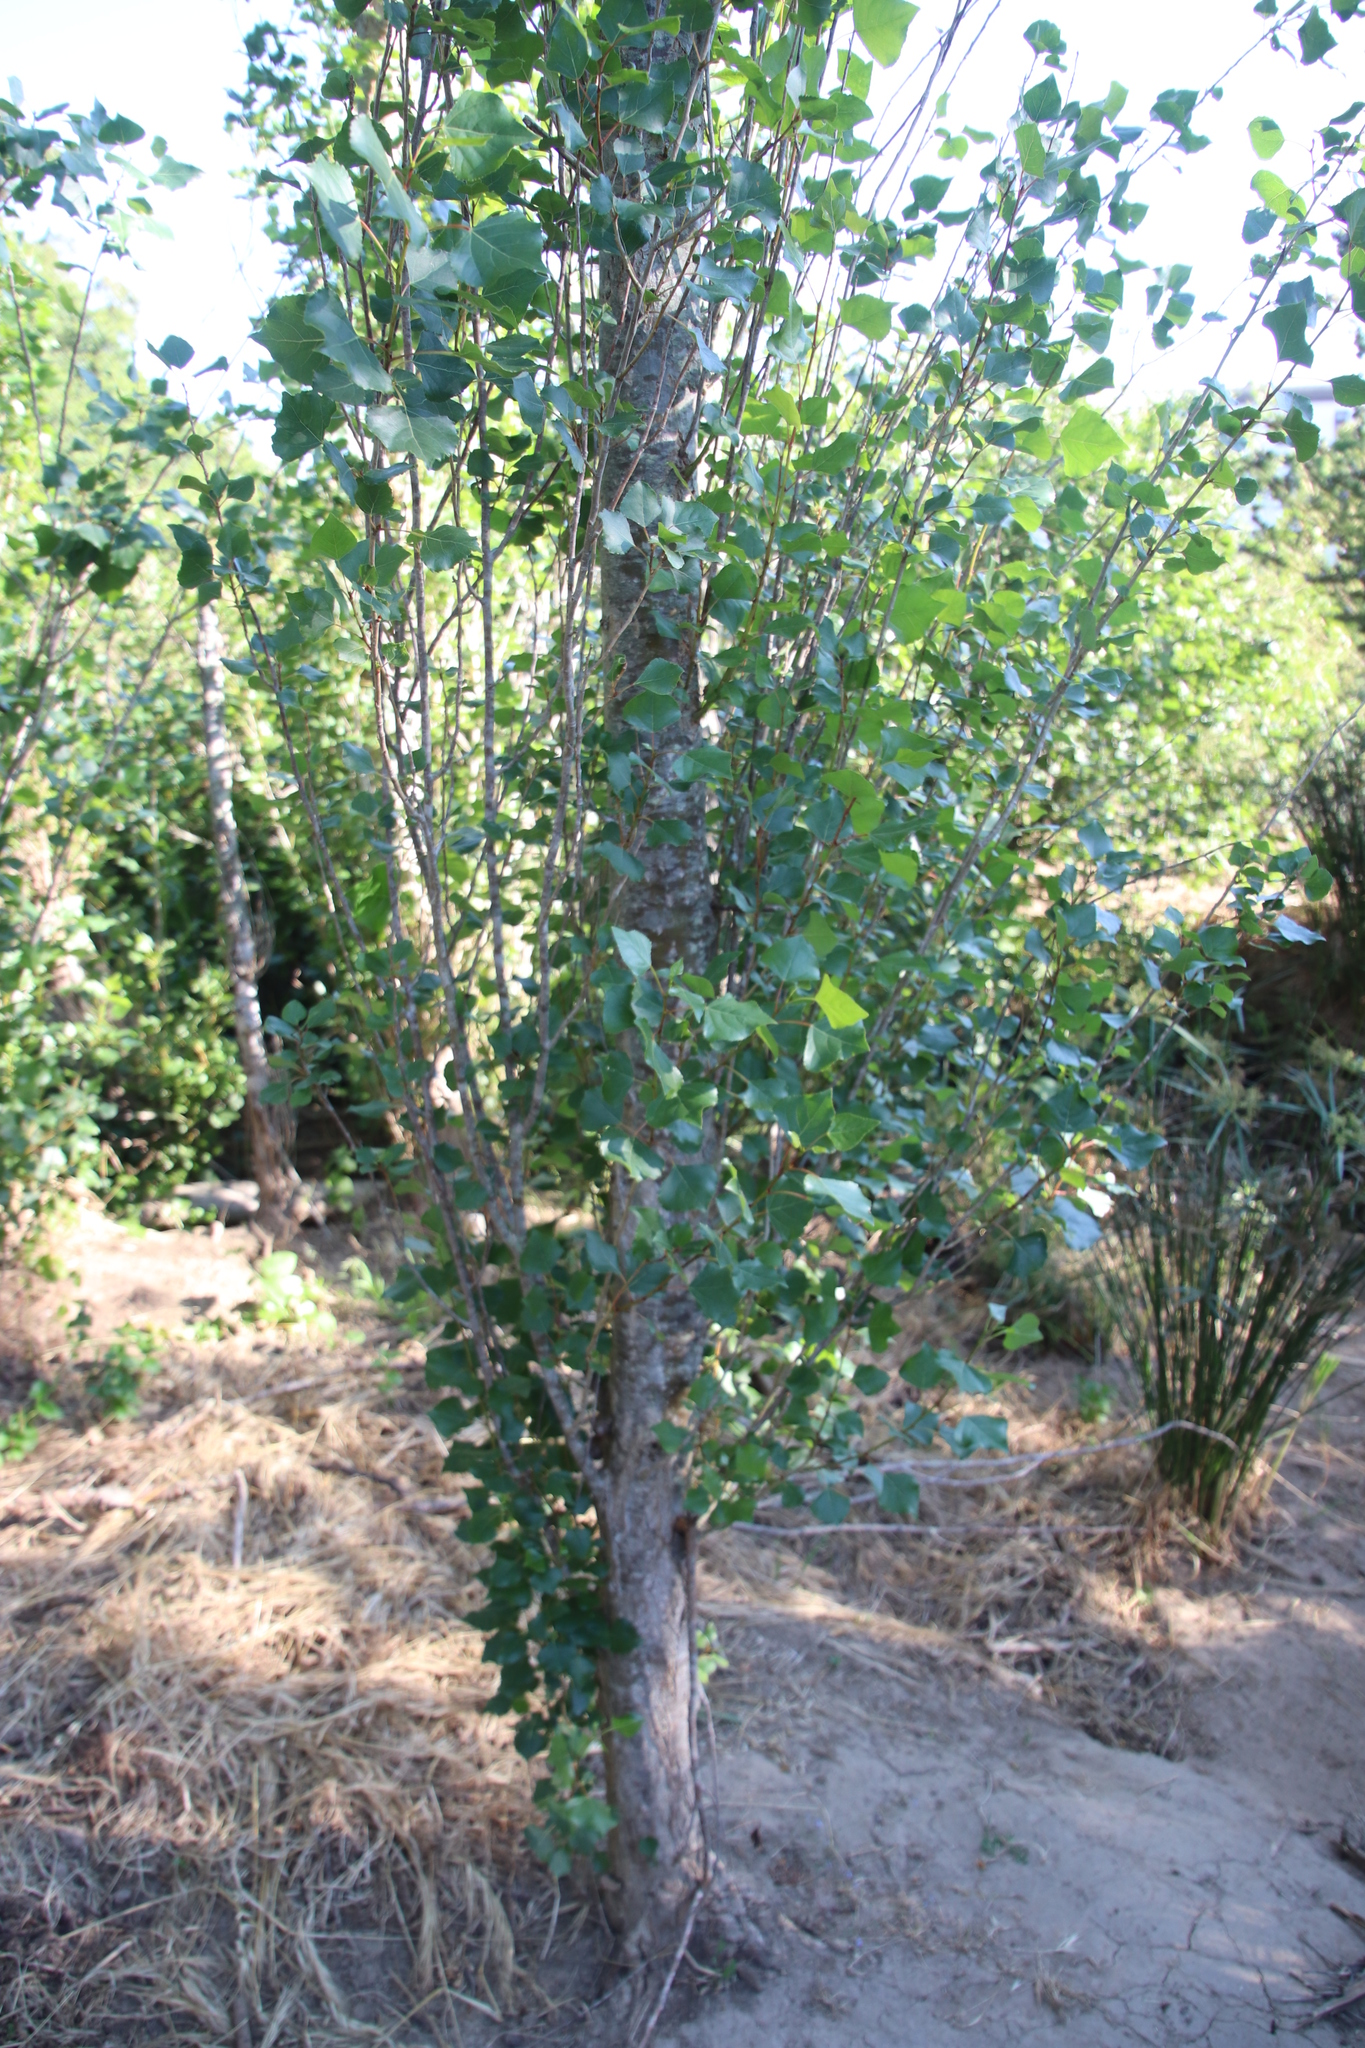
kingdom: Plantae
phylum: Tracheophyta
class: Magnoliopsida
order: Malpighiales
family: Salicaceae
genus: Populus
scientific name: Populus nigra
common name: Black poplar
